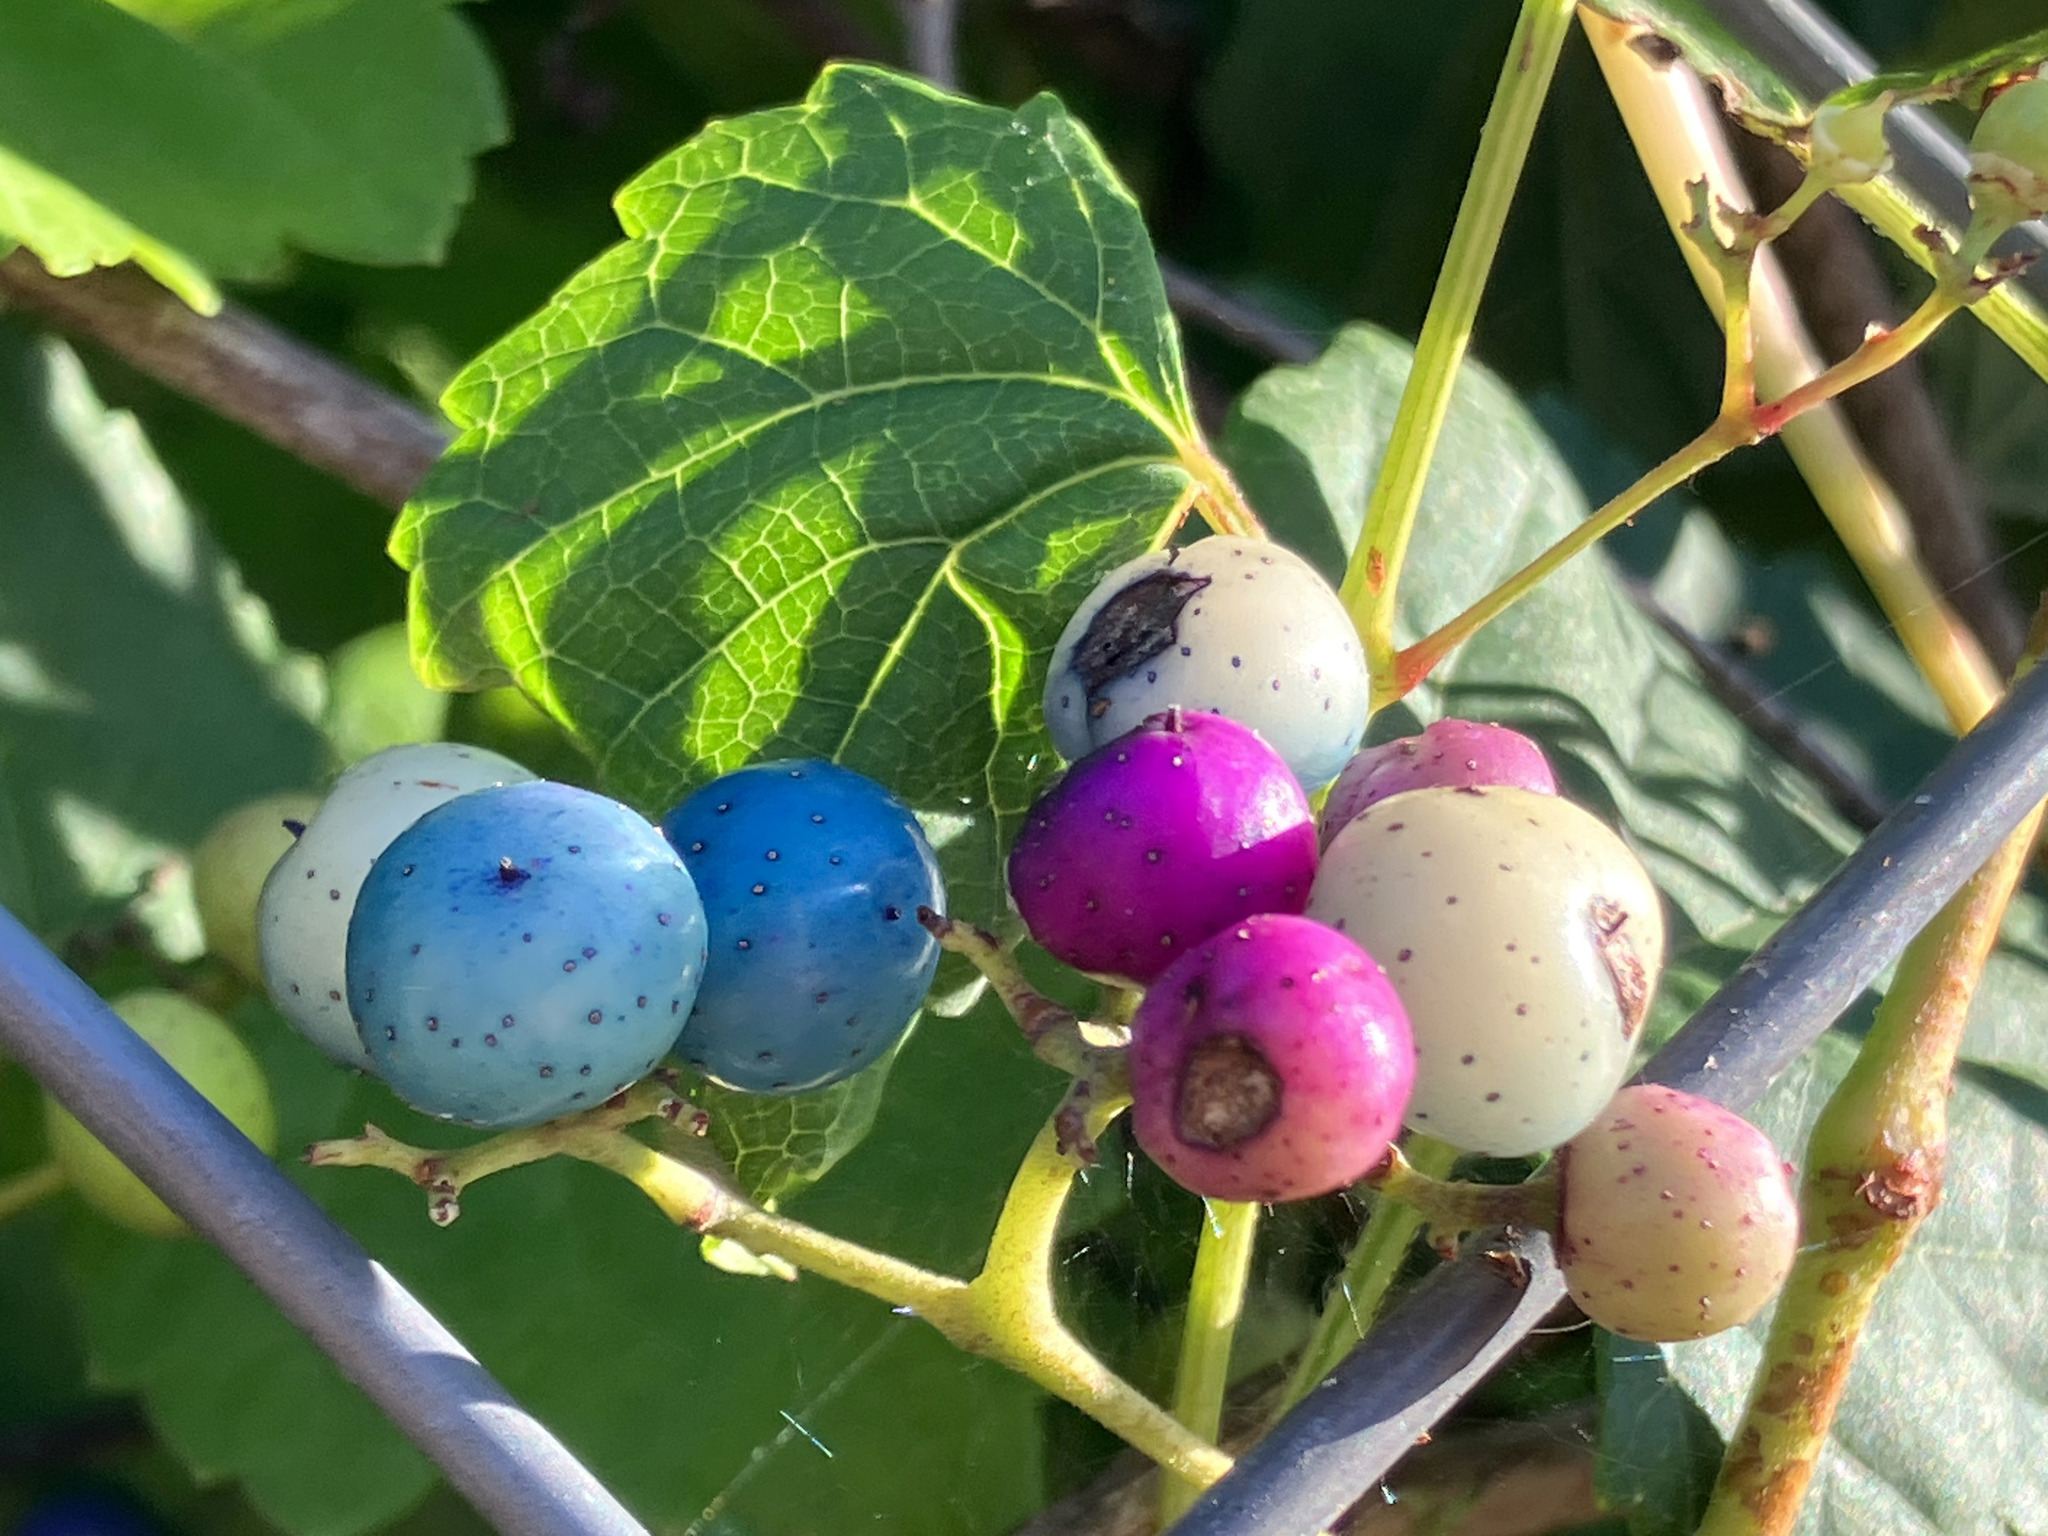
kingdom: Plantae
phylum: Tracheophyta
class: Magnoliopsida
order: Vitales
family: Vitaceae
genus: Ampelopsis
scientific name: Ampelopsis glandulosa
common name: Amur peppervine
